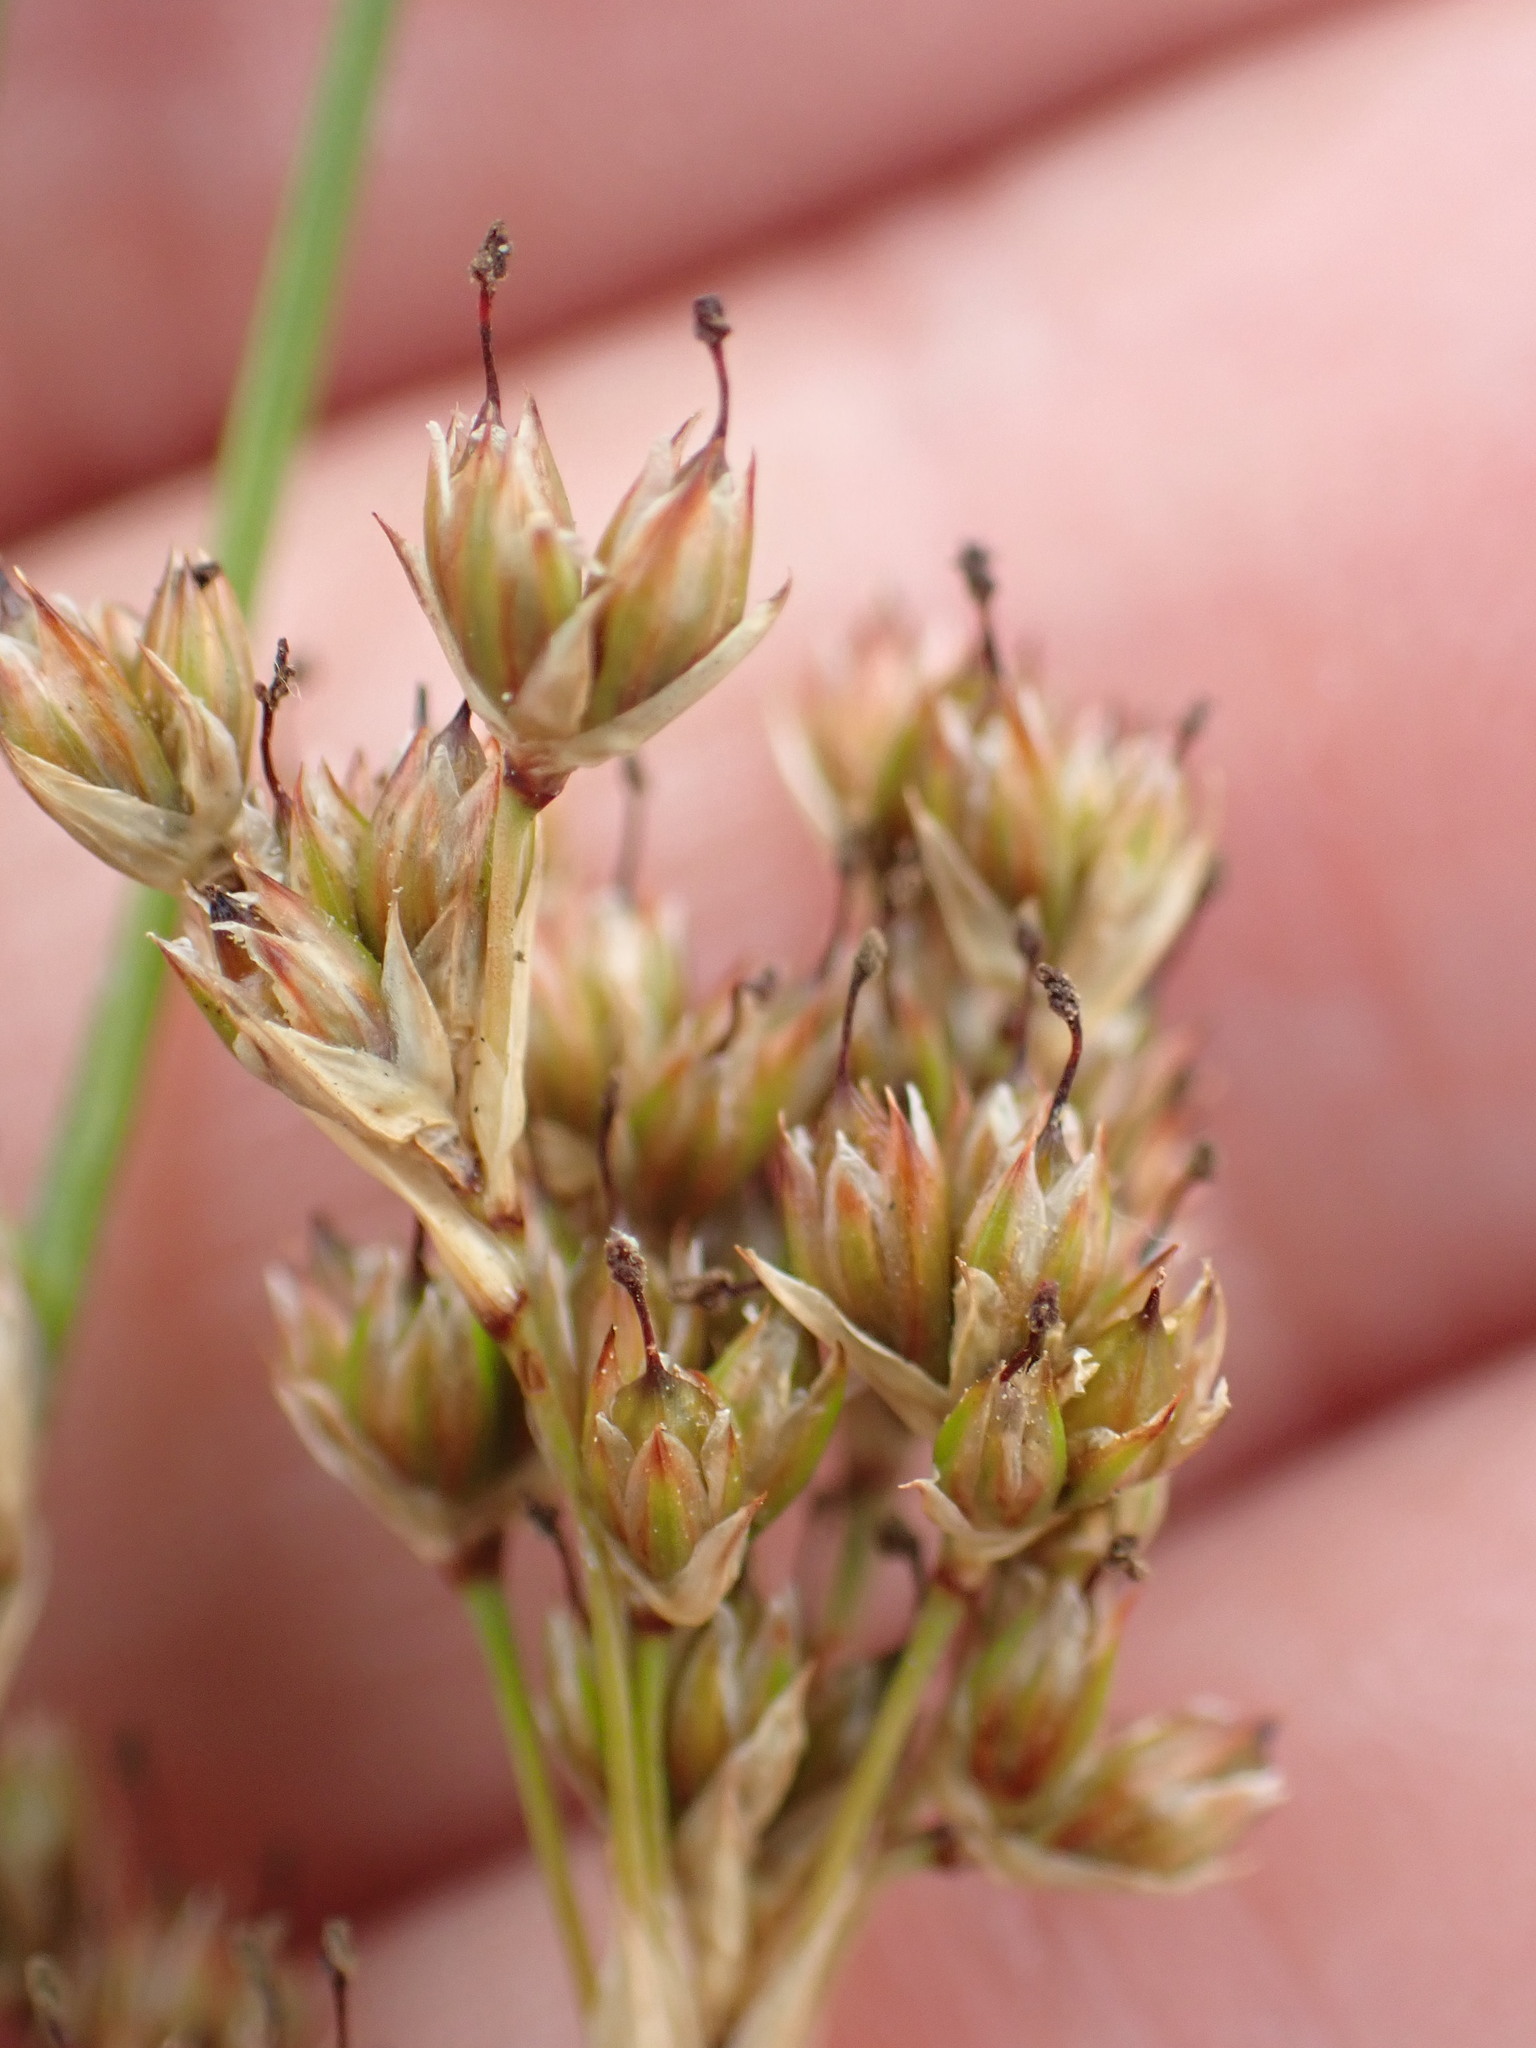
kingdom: Plantae
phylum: Tracheophyta
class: Liliopsida
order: Poales
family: Juncaceae
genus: Juncus
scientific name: Juncus maritimus
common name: Sea rush
